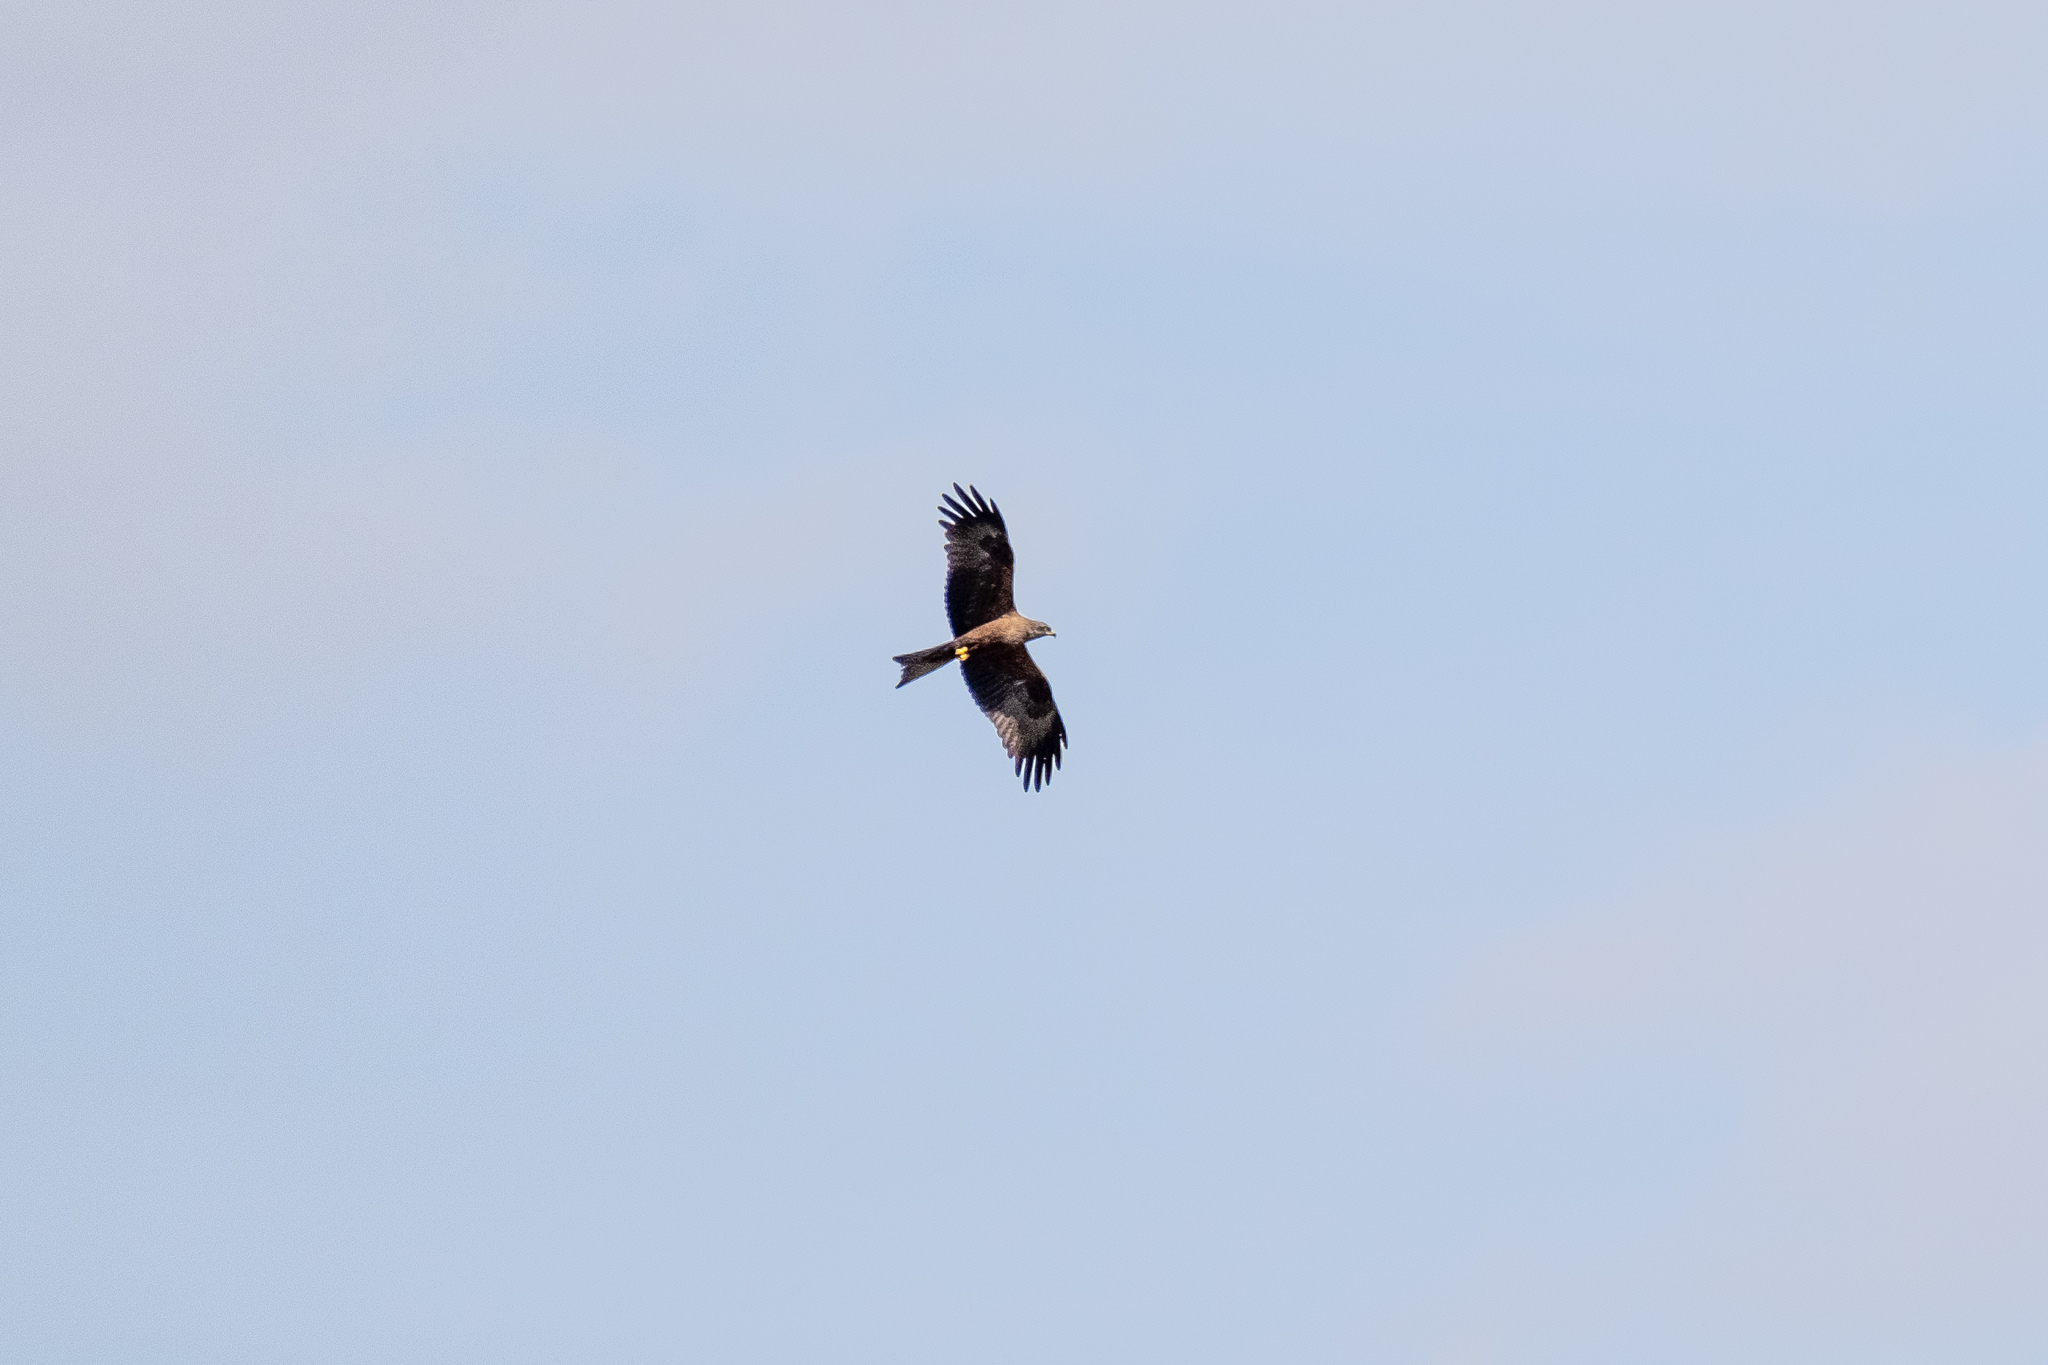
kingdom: Animalia
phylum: Chordata
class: Aves
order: Accipitriformes
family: Accipitridae
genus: Milvus
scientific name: Milvus migrans
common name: Black kite
